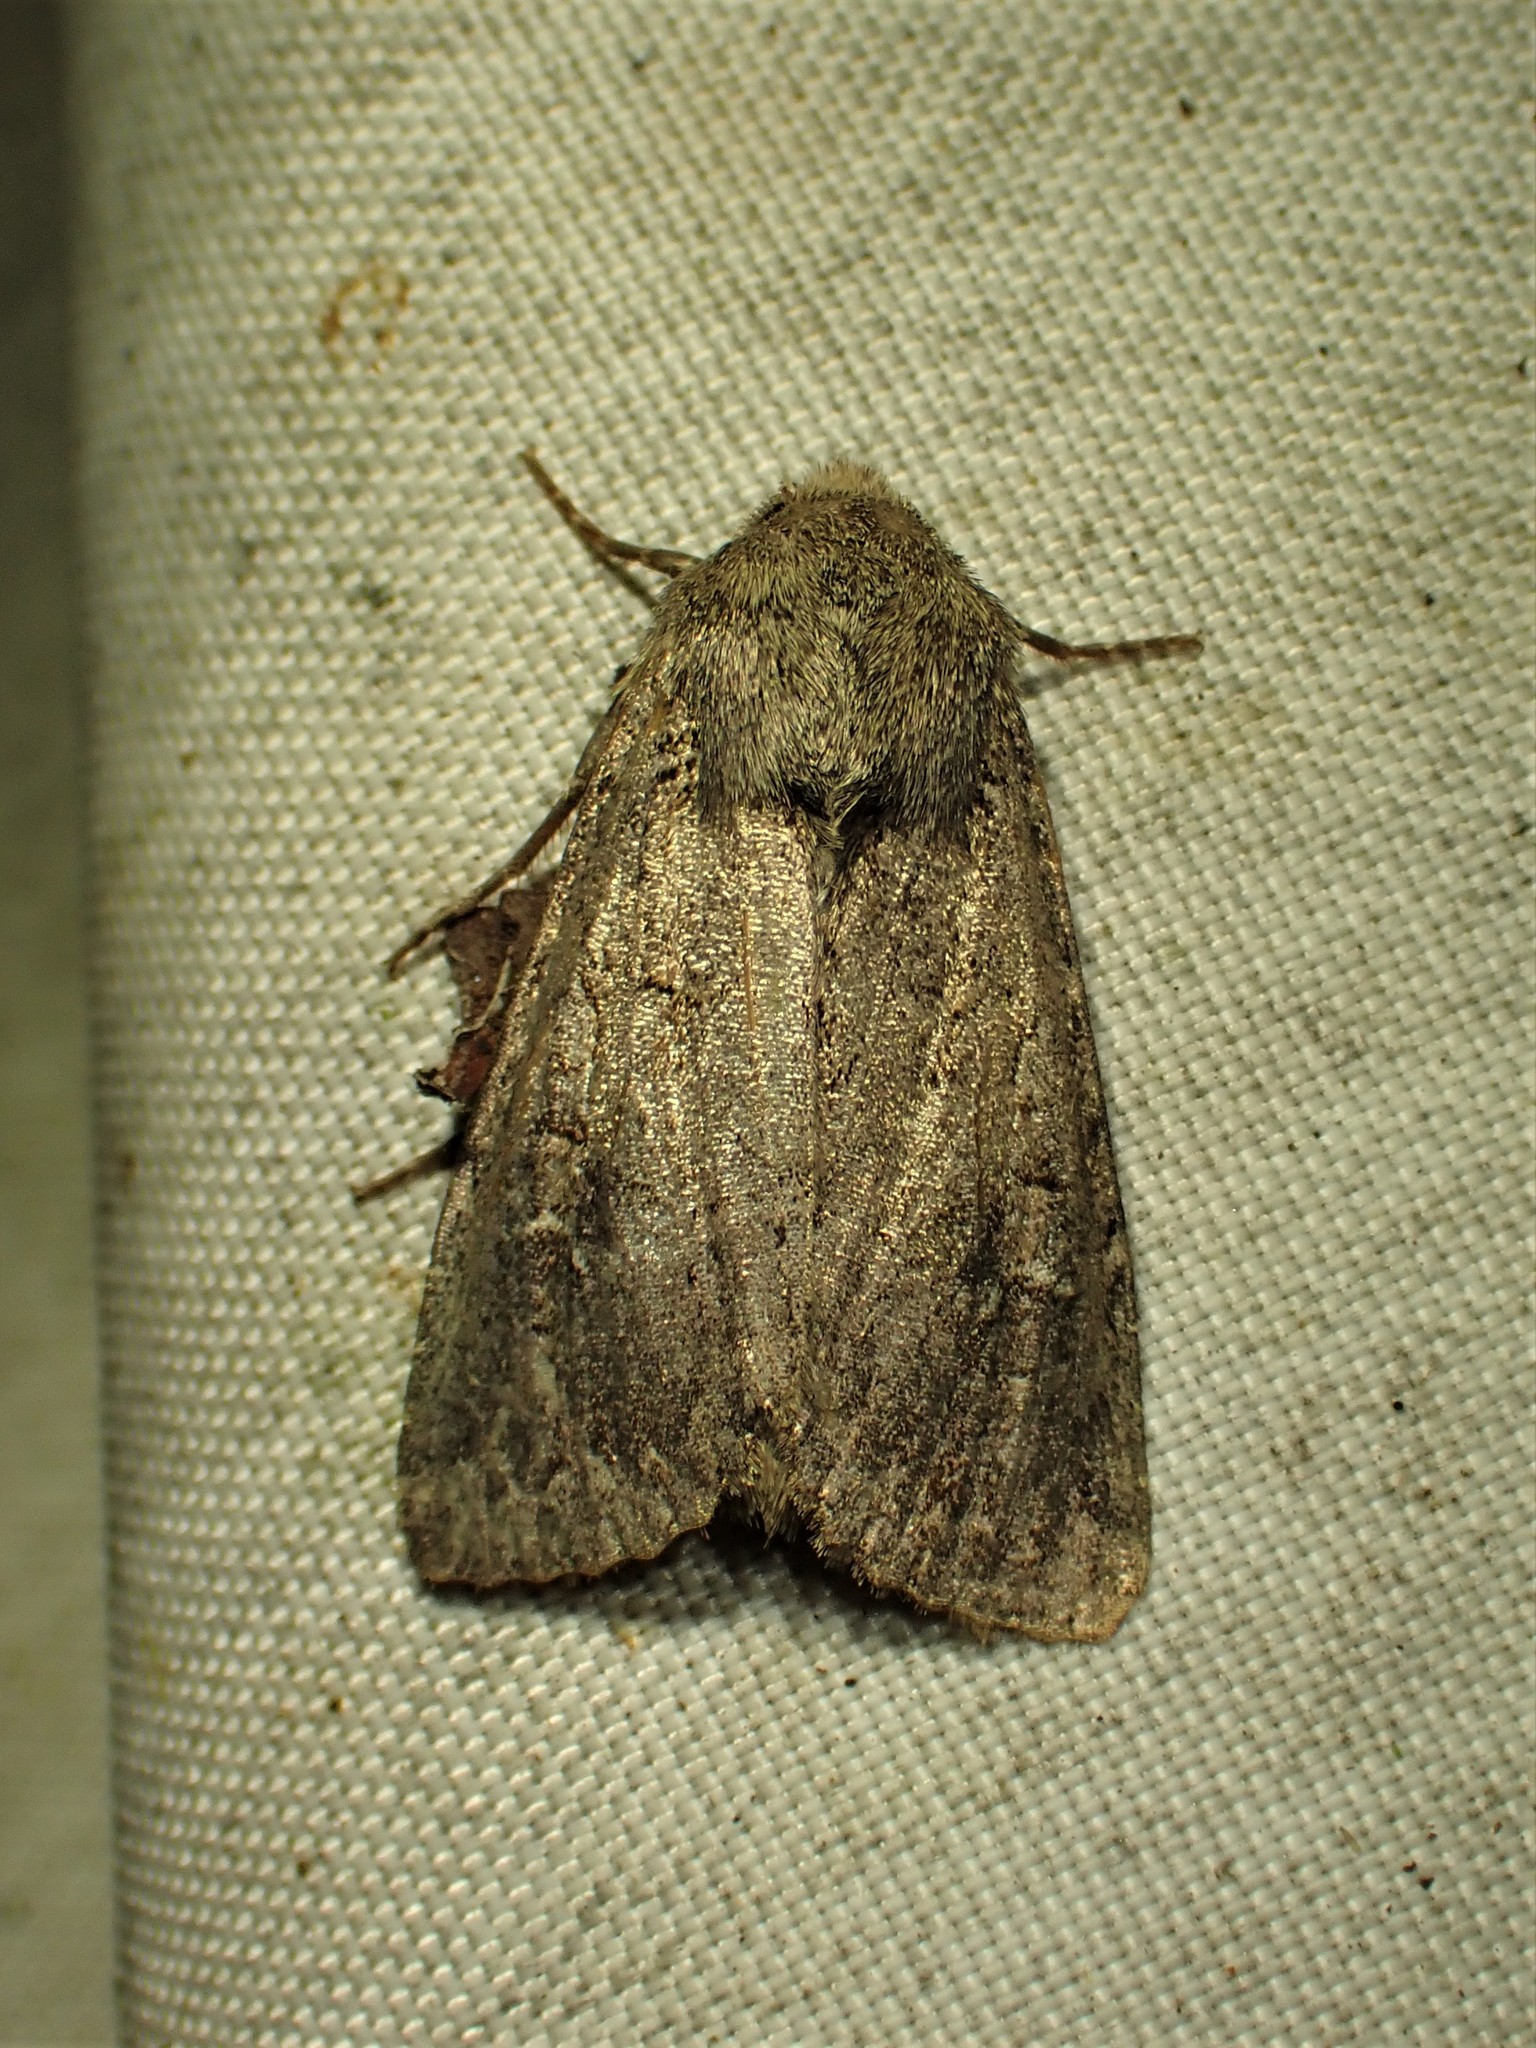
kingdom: Animalia
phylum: Arthropoda
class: Insecta
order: Lepidoptera
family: Noctuidae
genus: Apamea
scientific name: Apamea devastator
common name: Glassy cutworm
